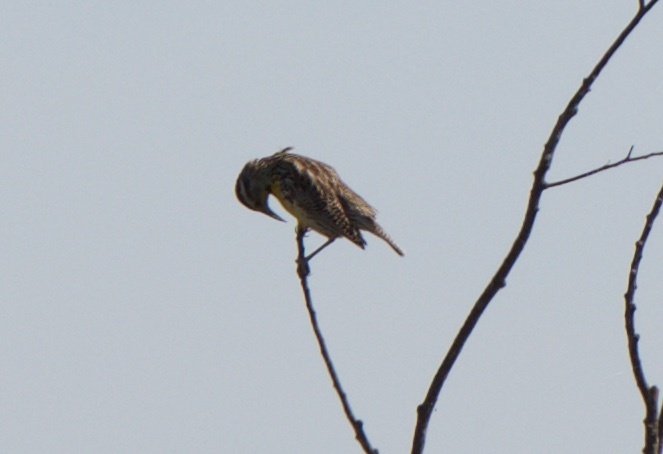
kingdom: Animalia
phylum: Chordata
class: Aves
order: Passeriformes
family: Icteridae
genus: Sturnella
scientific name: Sturnella neglecta
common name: Western meadowlark
